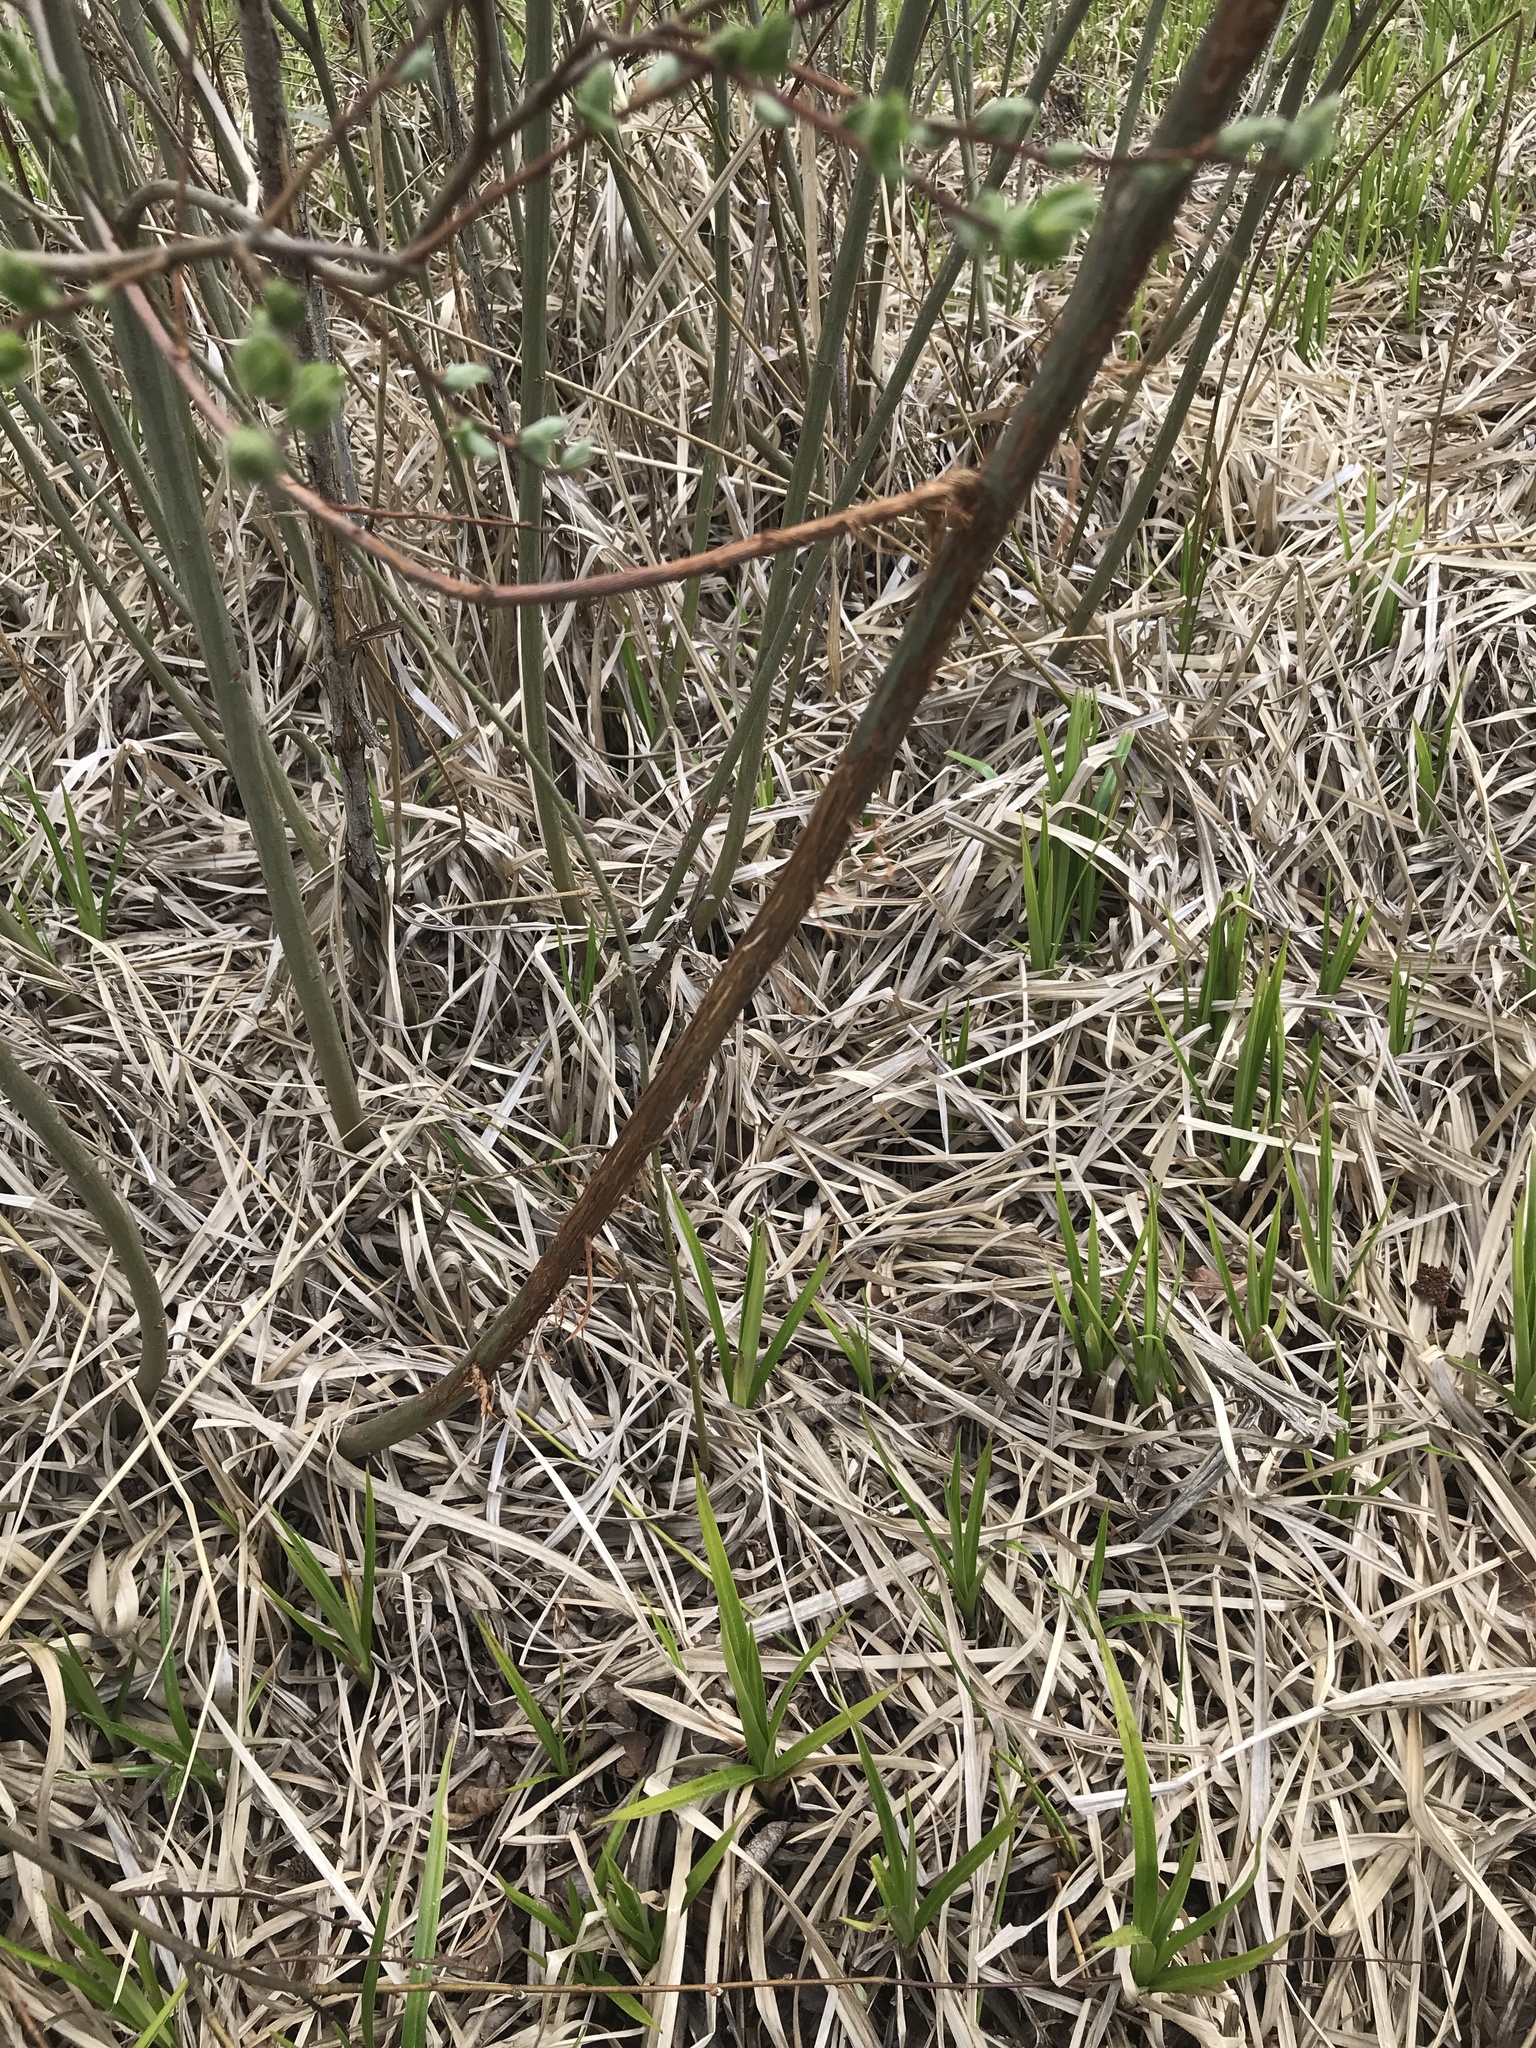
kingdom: Animalia
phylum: Chordata
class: Mammalia
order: Artiodactyla
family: Cervidae
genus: Capreolus
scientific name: Capreolus capreolus
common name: Western roe deer
